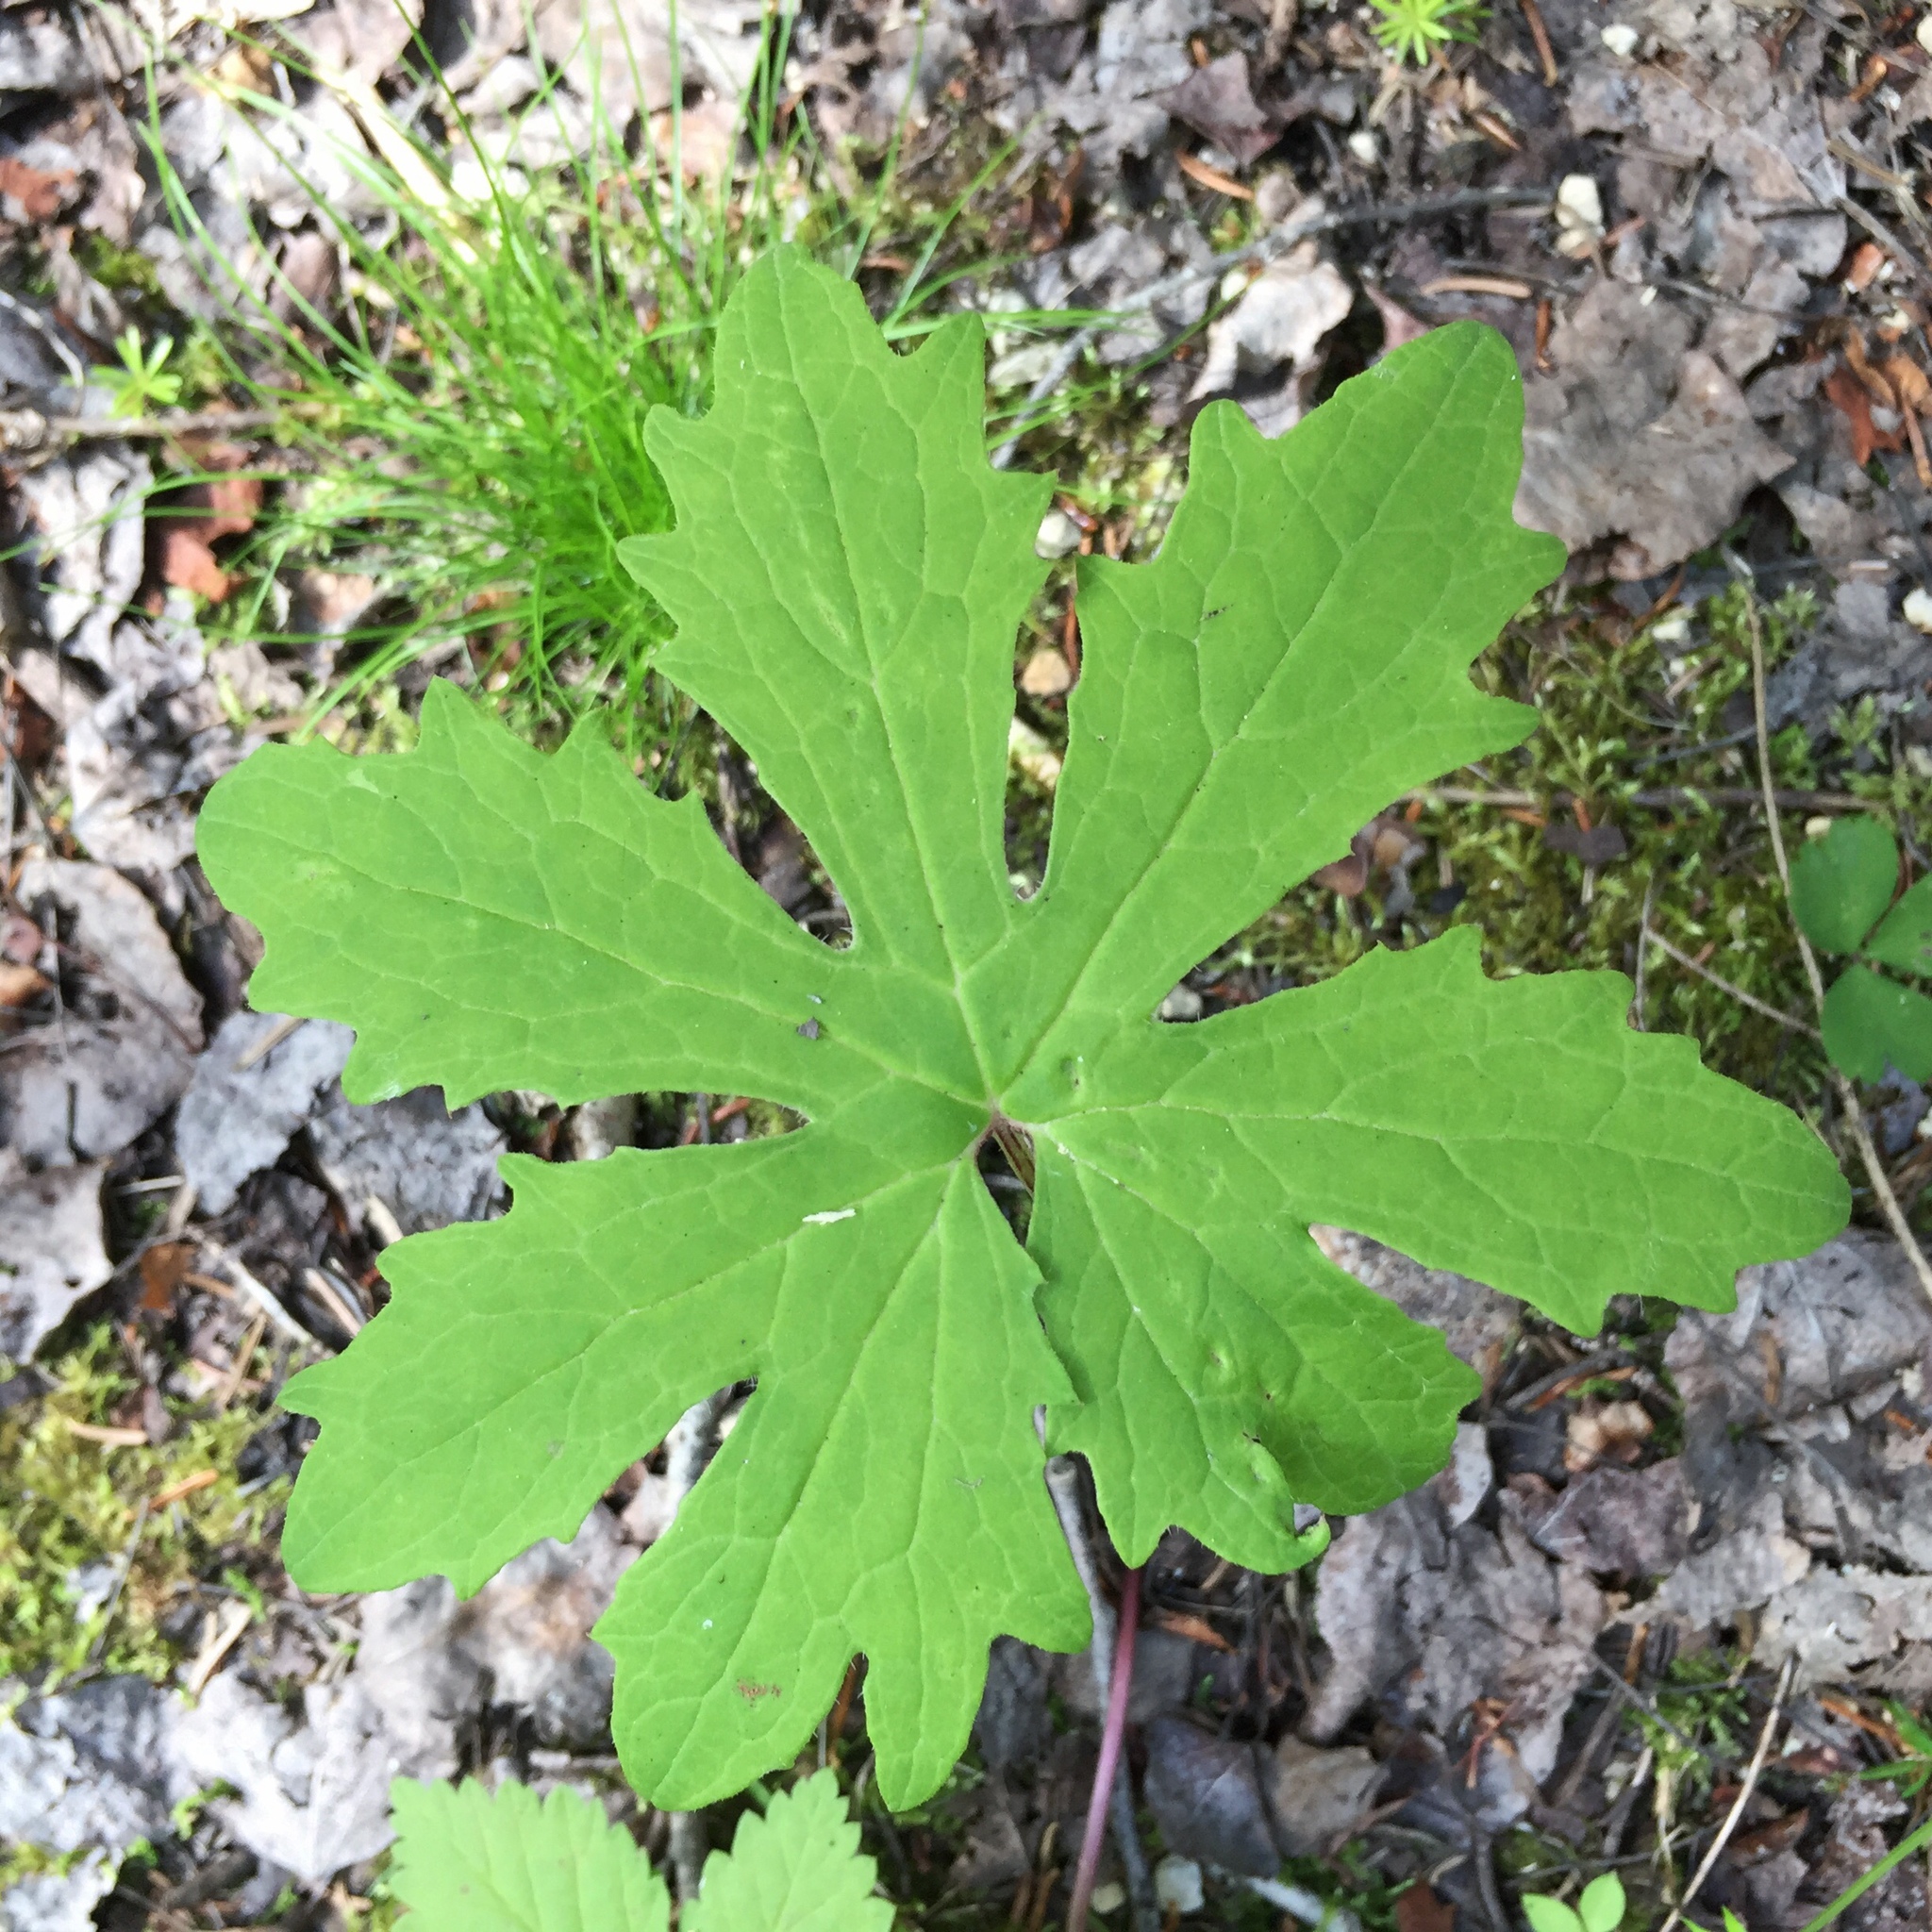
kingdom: Plantae
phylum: Tracheophyta
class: Magnoliopsida
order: Asterales
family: Asteraceae
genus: Petasites
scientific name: Petasites frigidus
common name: Arctic butterbur
